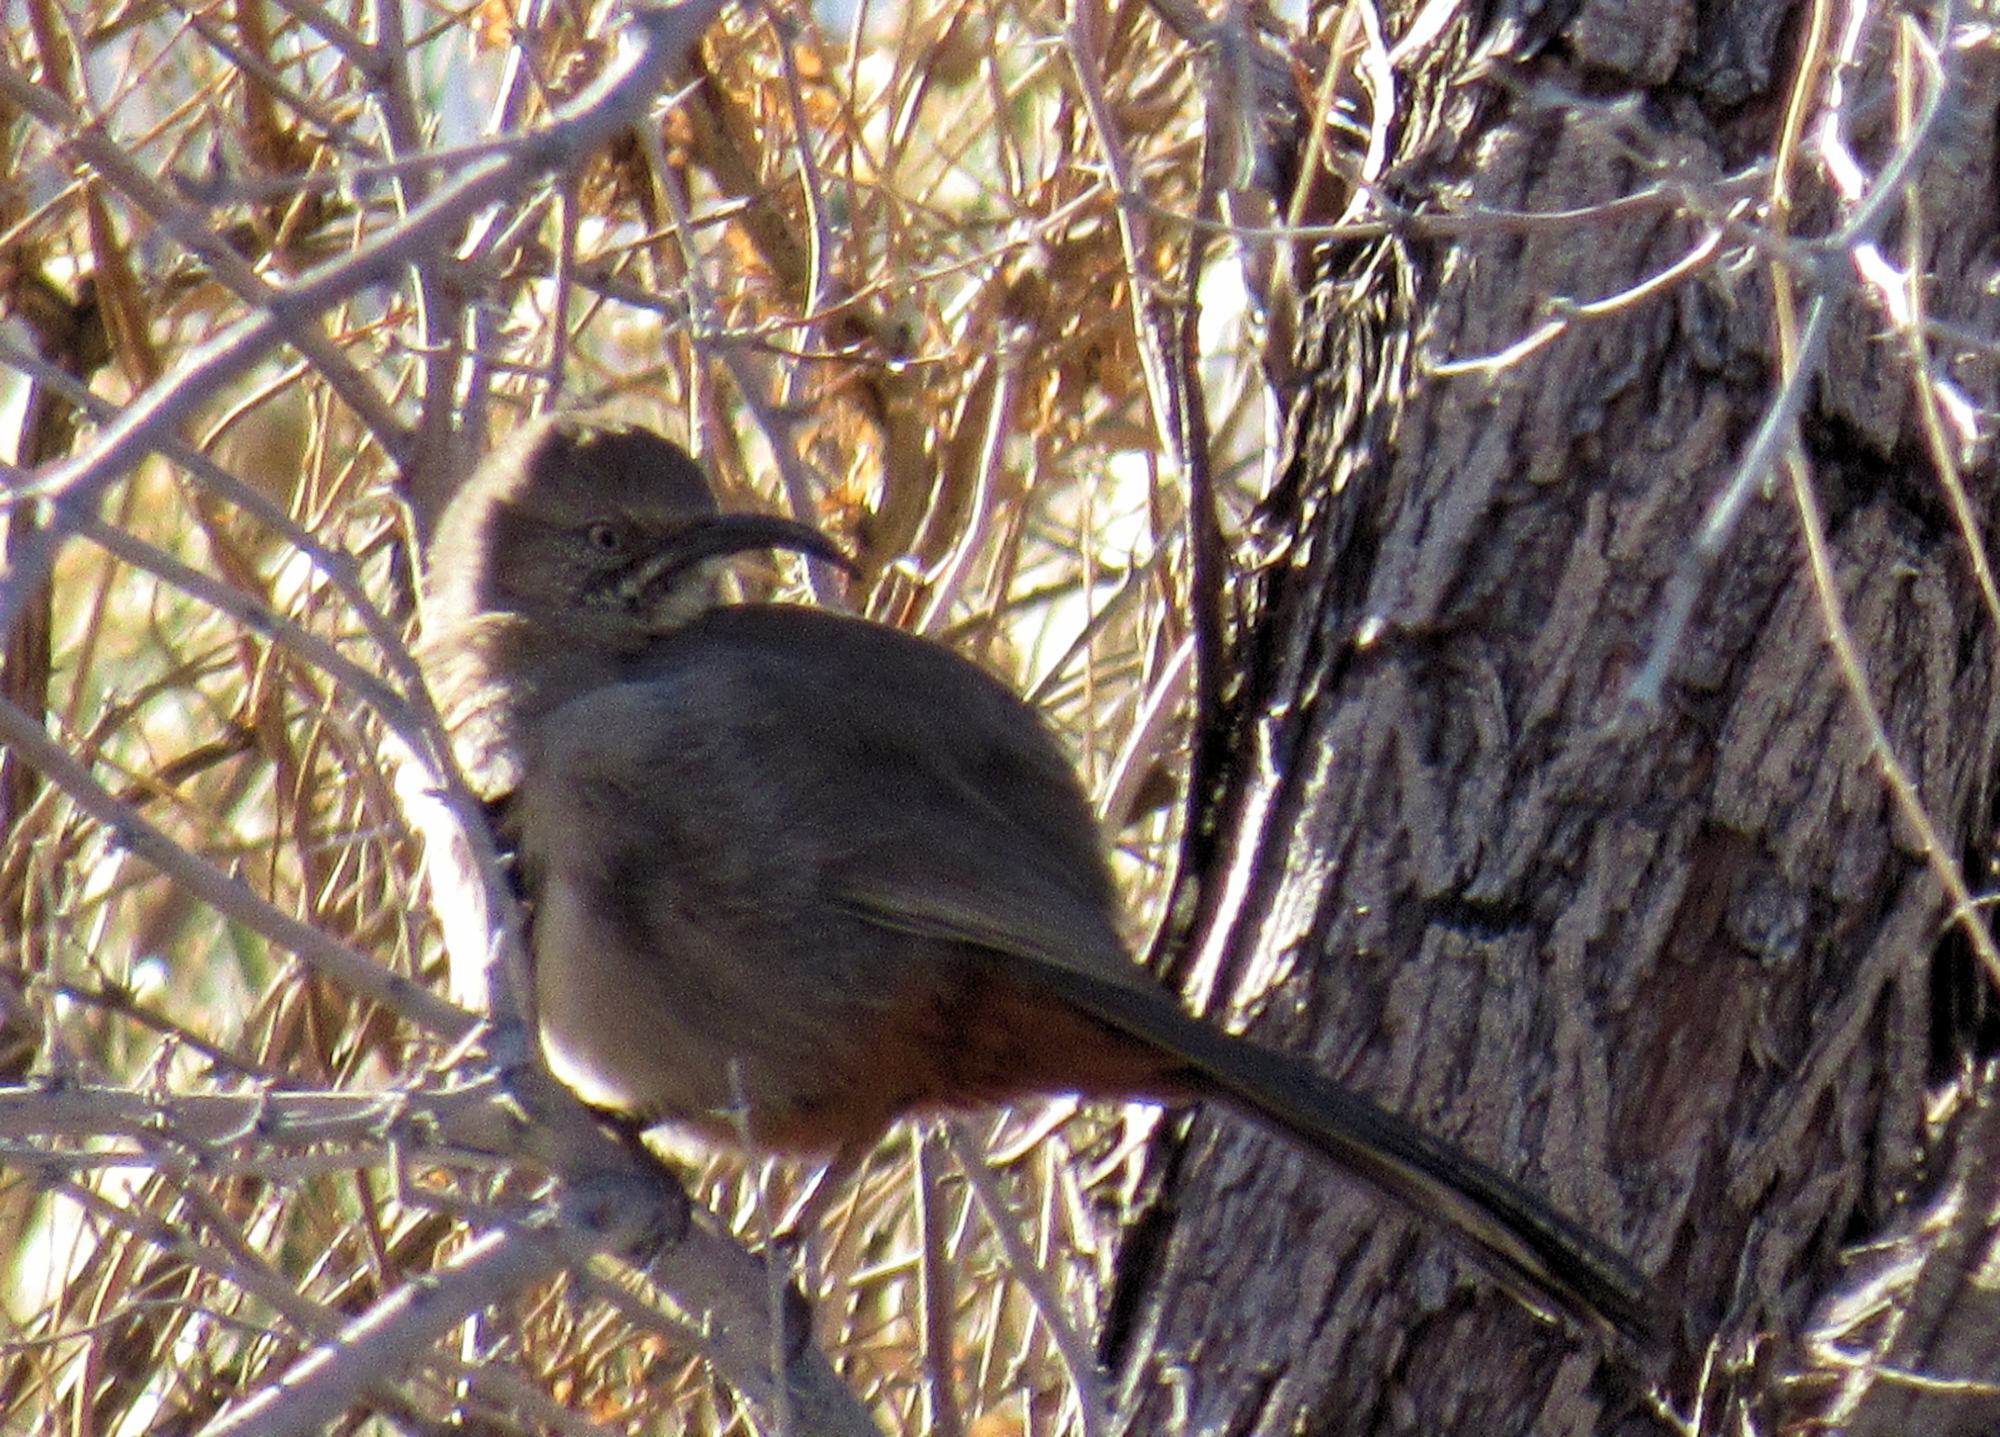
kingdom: Animalia
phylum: Chordata
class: Aves
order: Passeriformes
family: Mimidae
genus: Toxostoma
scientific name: Toxostoma crissale
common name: Crissal thrasher
